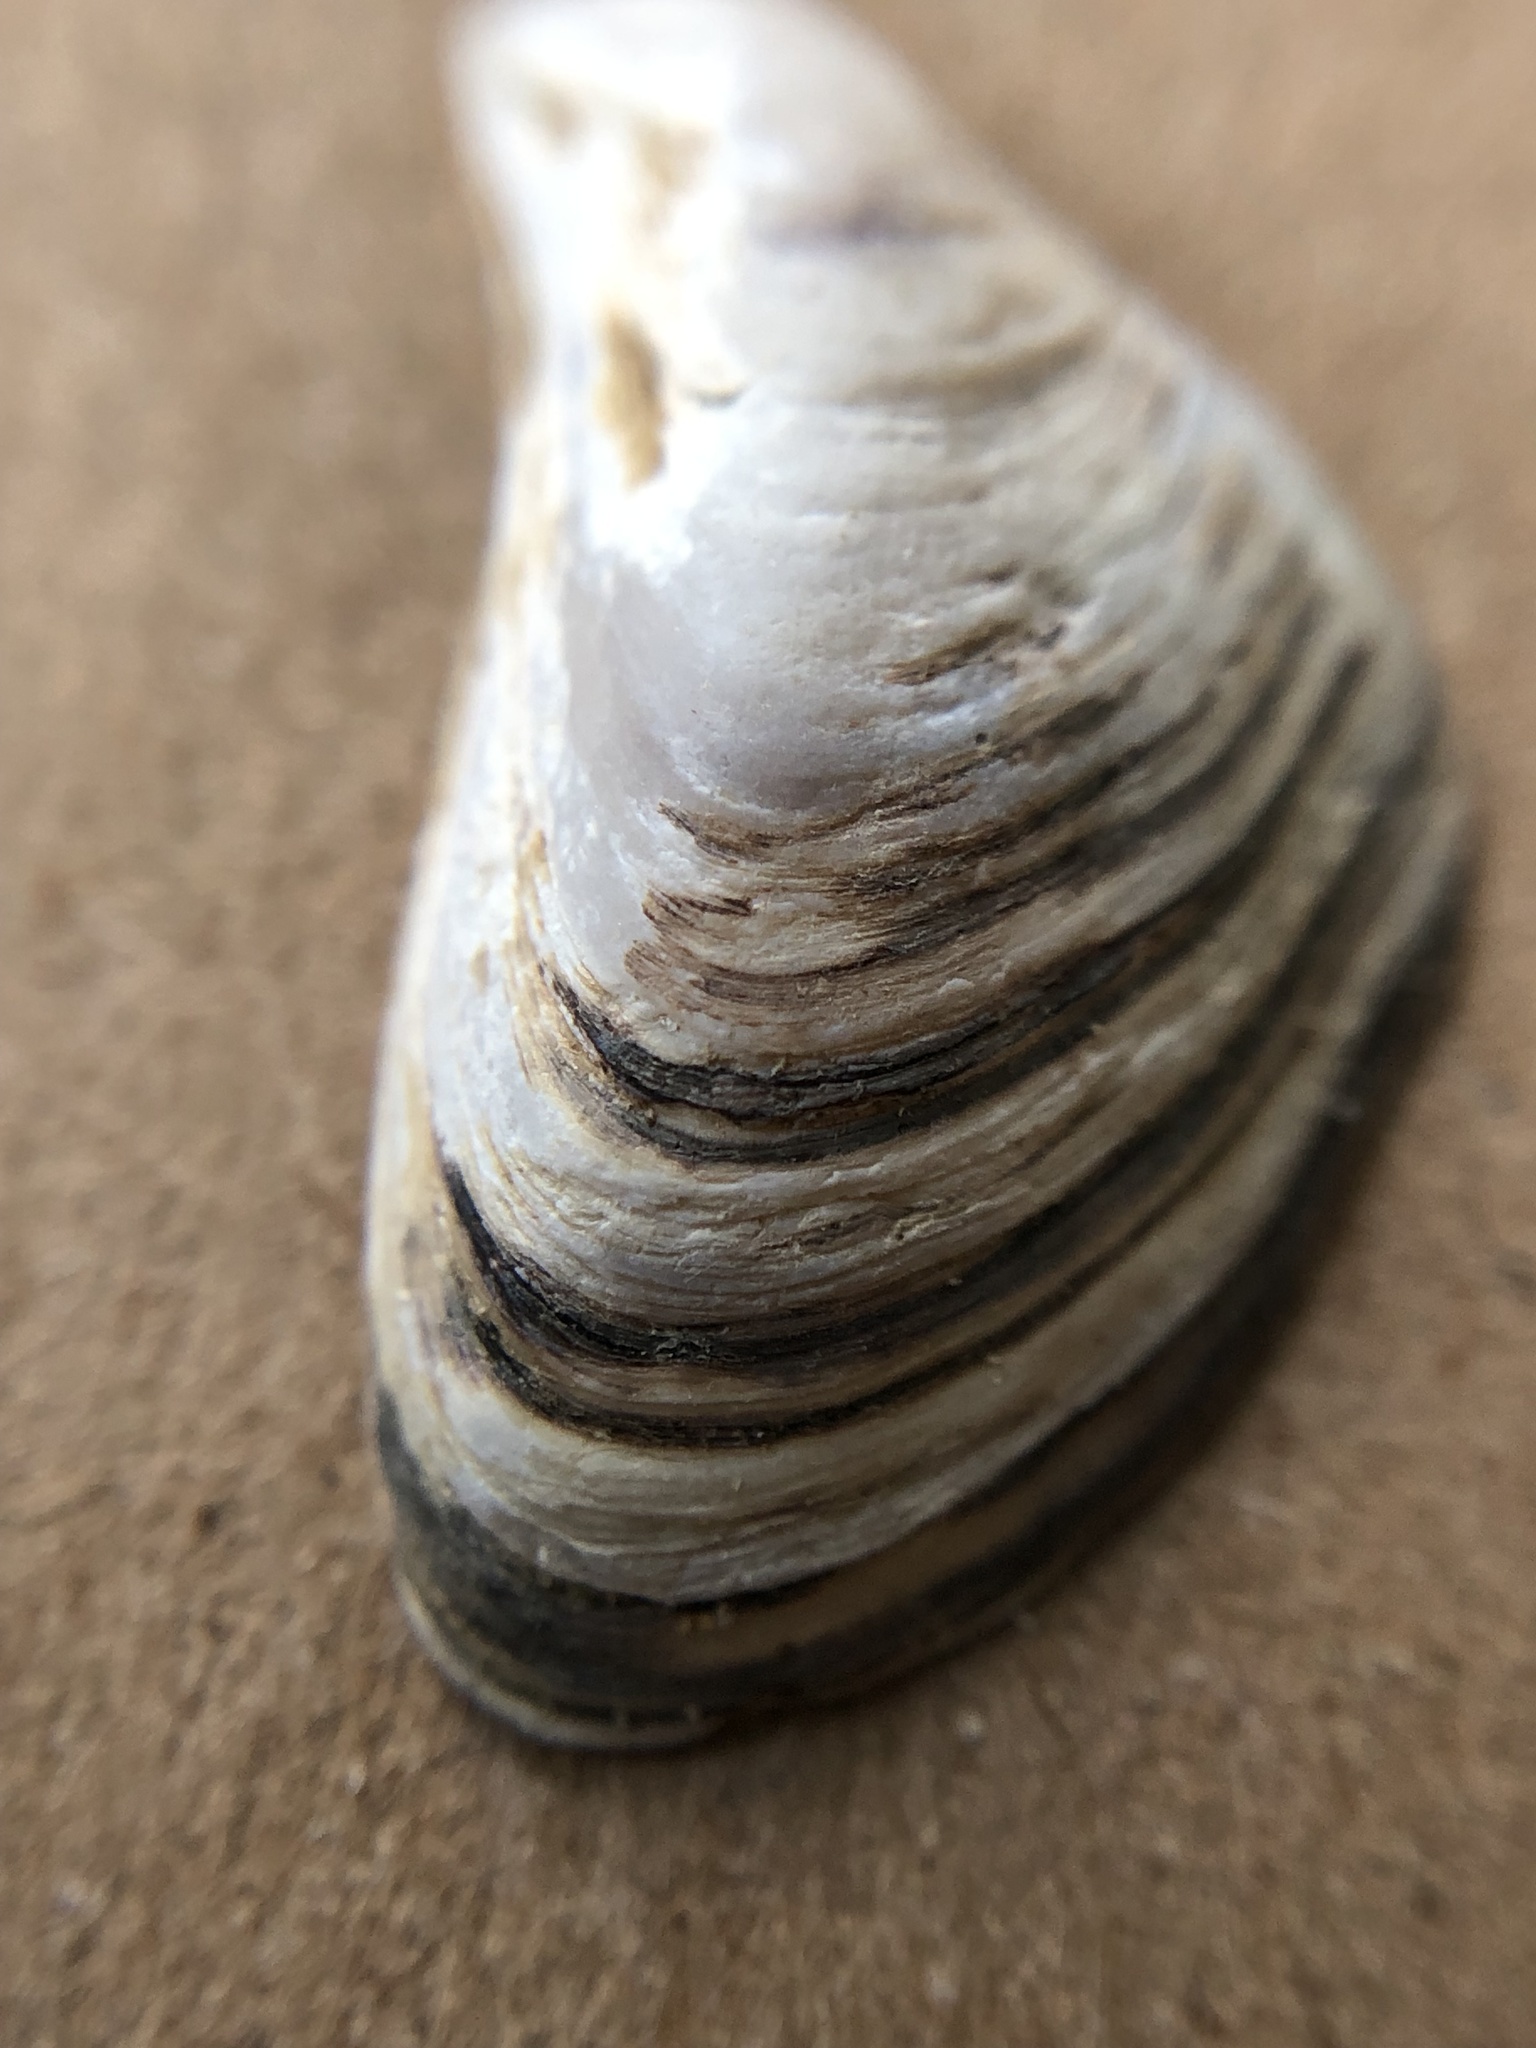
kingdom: Animalia
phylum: Mollusca
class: Bivalvia
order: Myida
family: Dreissenidae
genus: Dreissena
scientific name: Dreissena bugensis
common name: Quagga mussel
